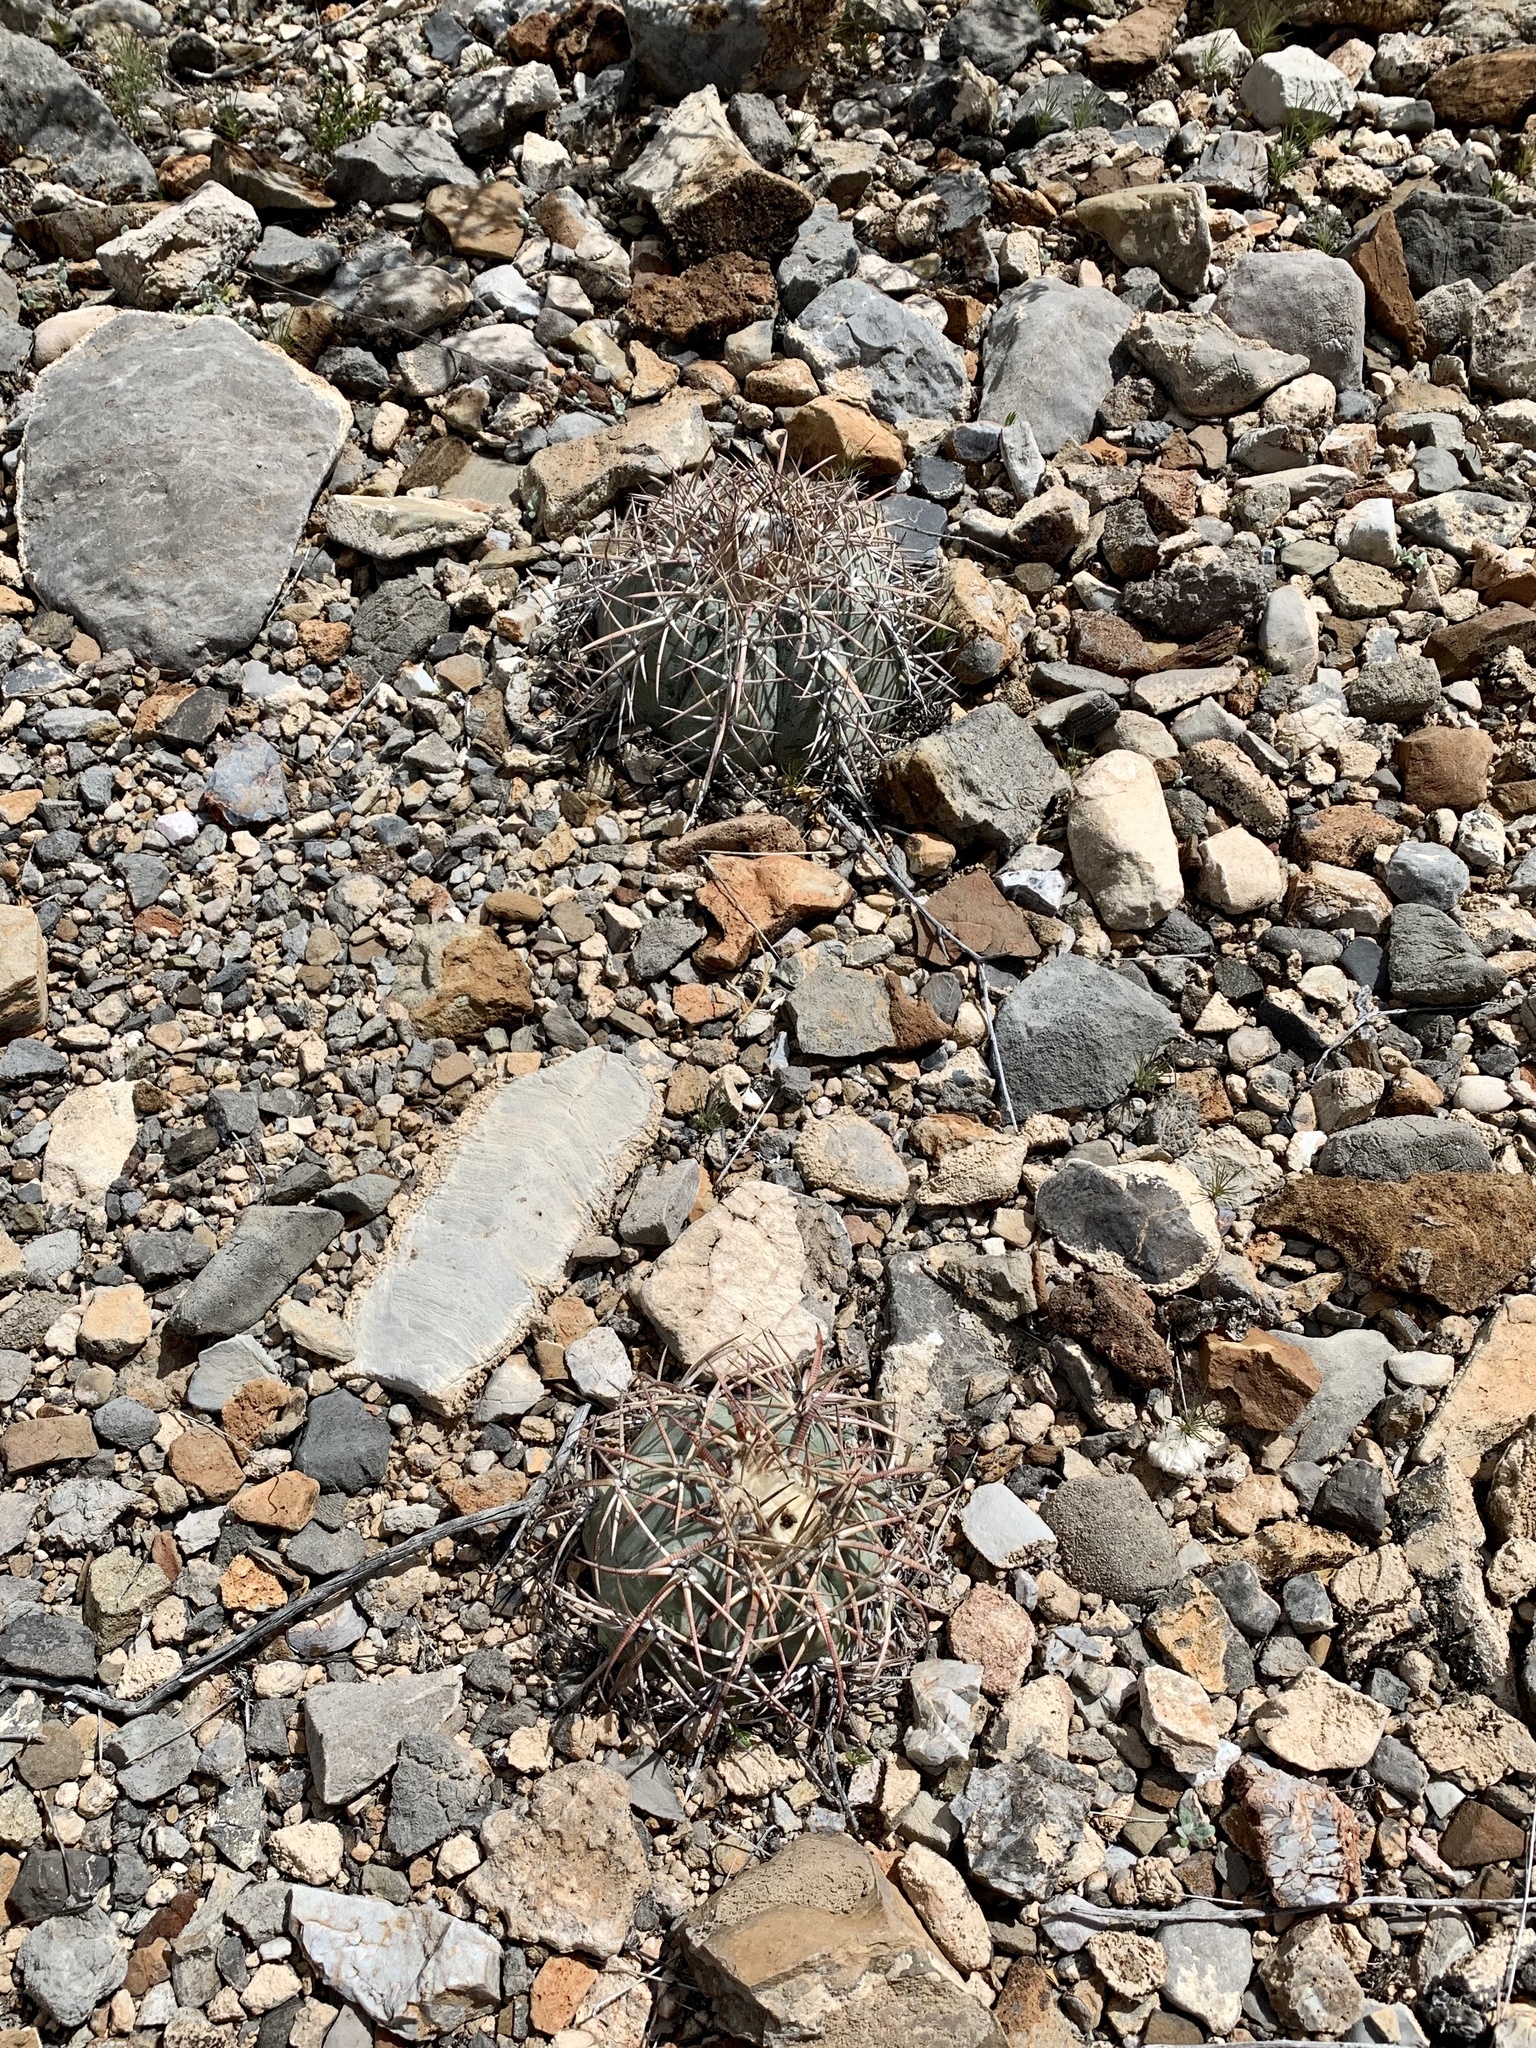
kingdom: Plantae
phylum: Tracheophyta
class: Magnoliopsida
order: Caryophyllales
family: Cactaceae
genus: Echinocactus
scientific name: Echinocactus horizonthalonius
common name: Devilshead
